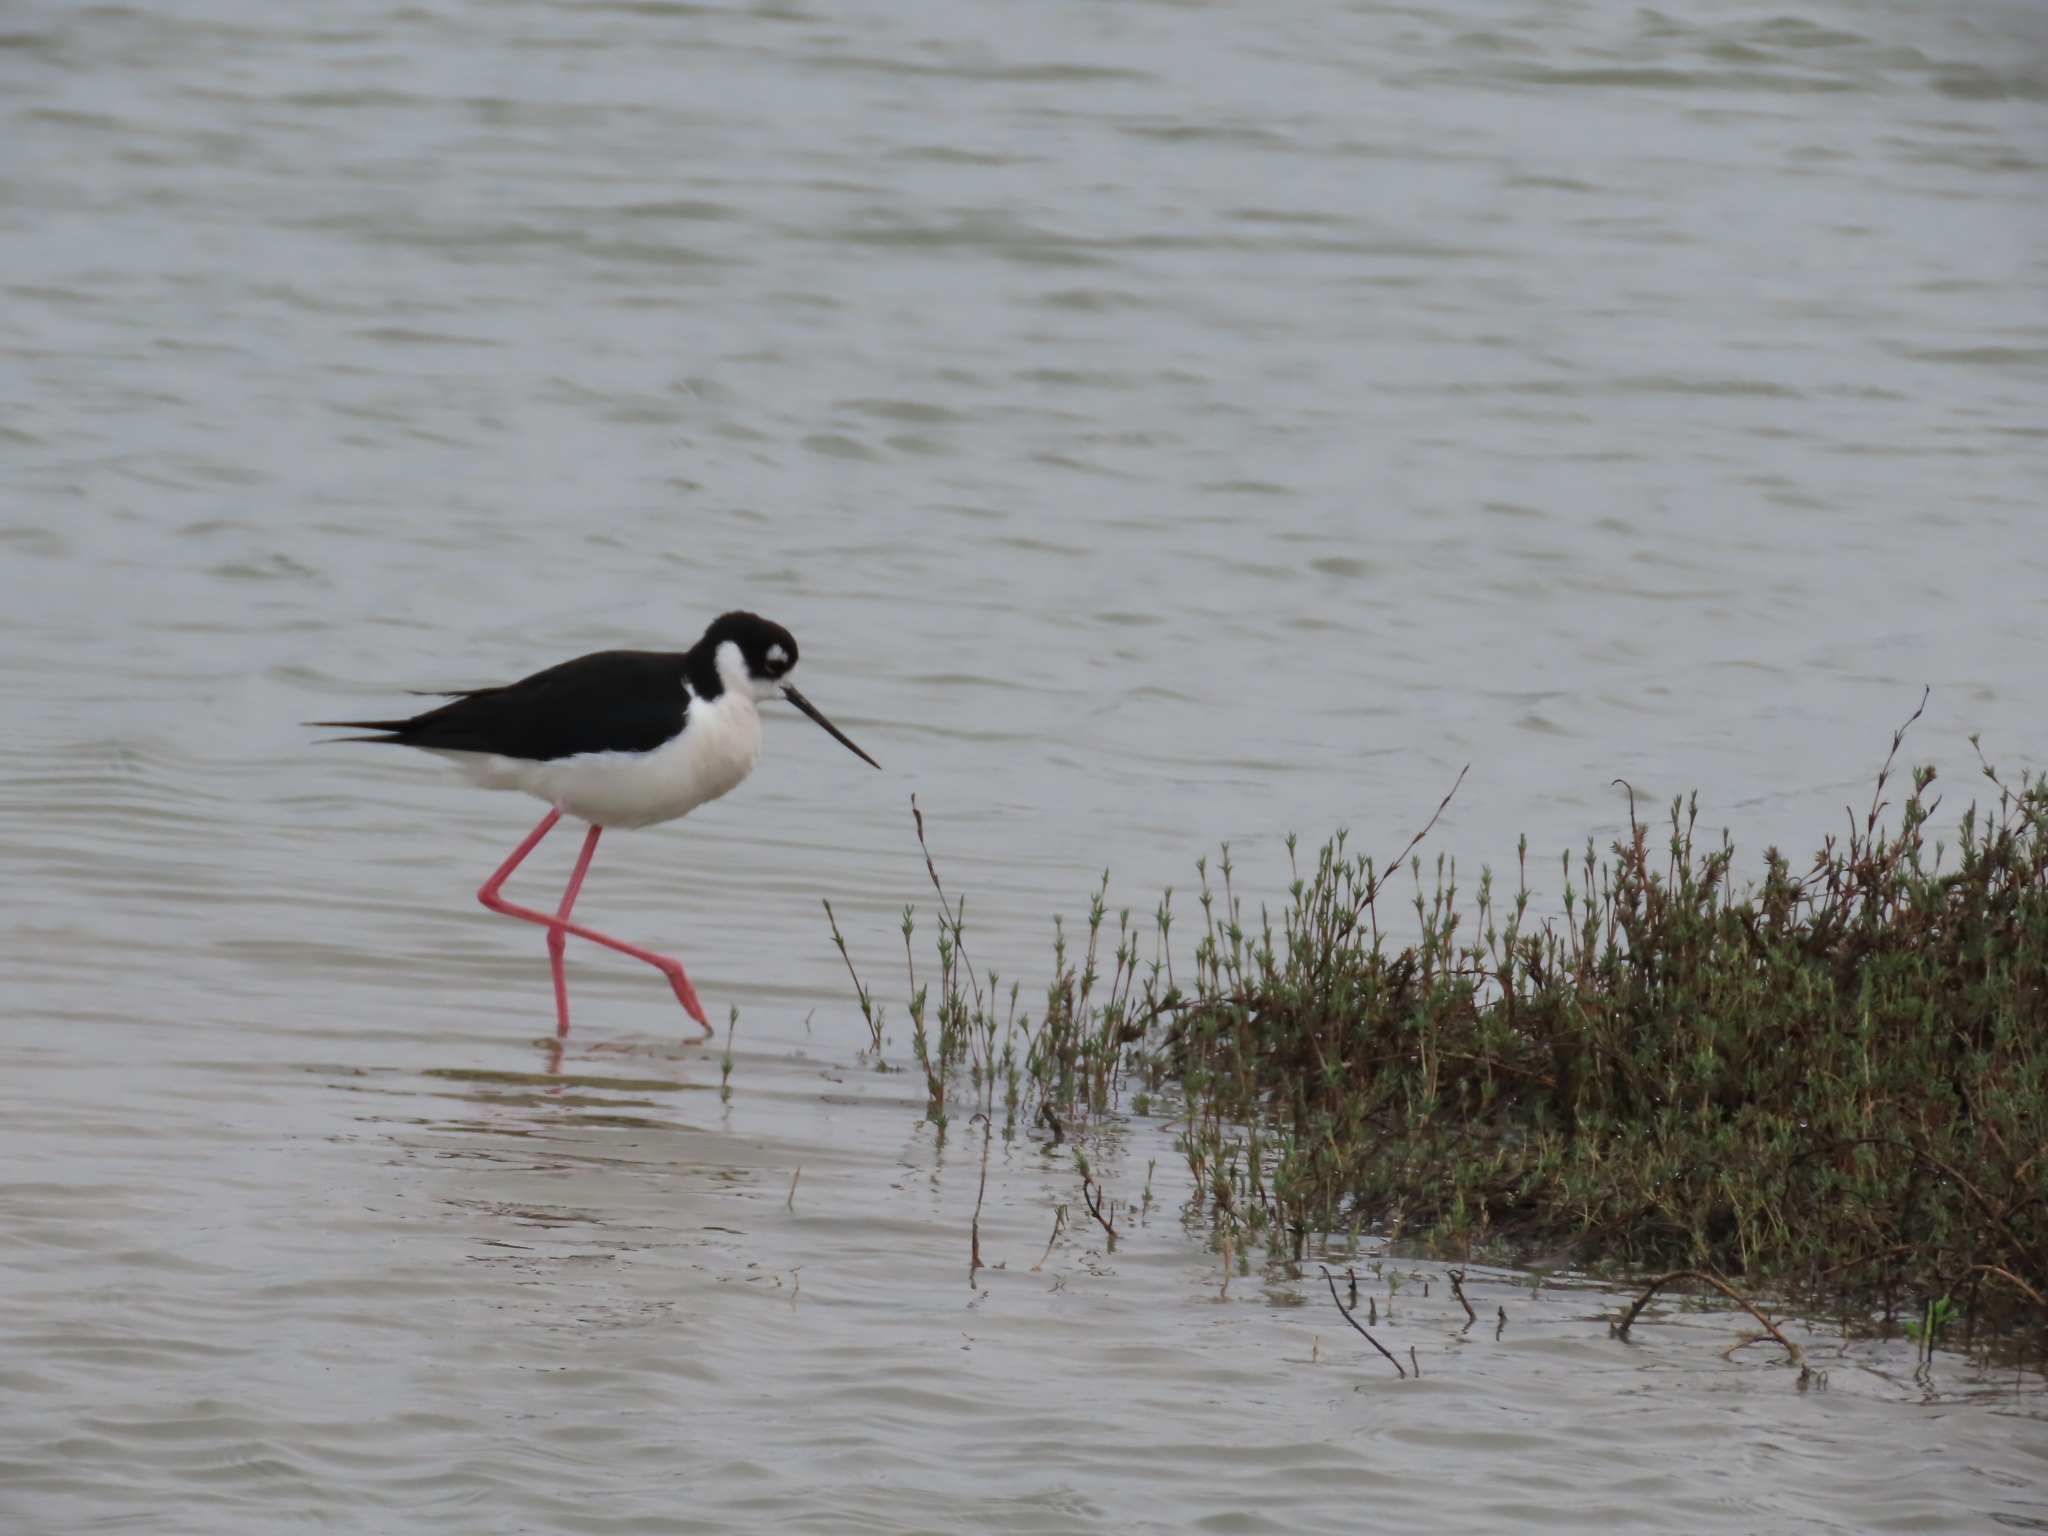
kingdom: Animalia
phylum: Chordata
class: Aves
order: Charadriiformes
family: Recurvirostridae
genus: Himantopus
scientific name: Himantopus mexicanus
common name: Black-necked stilt
